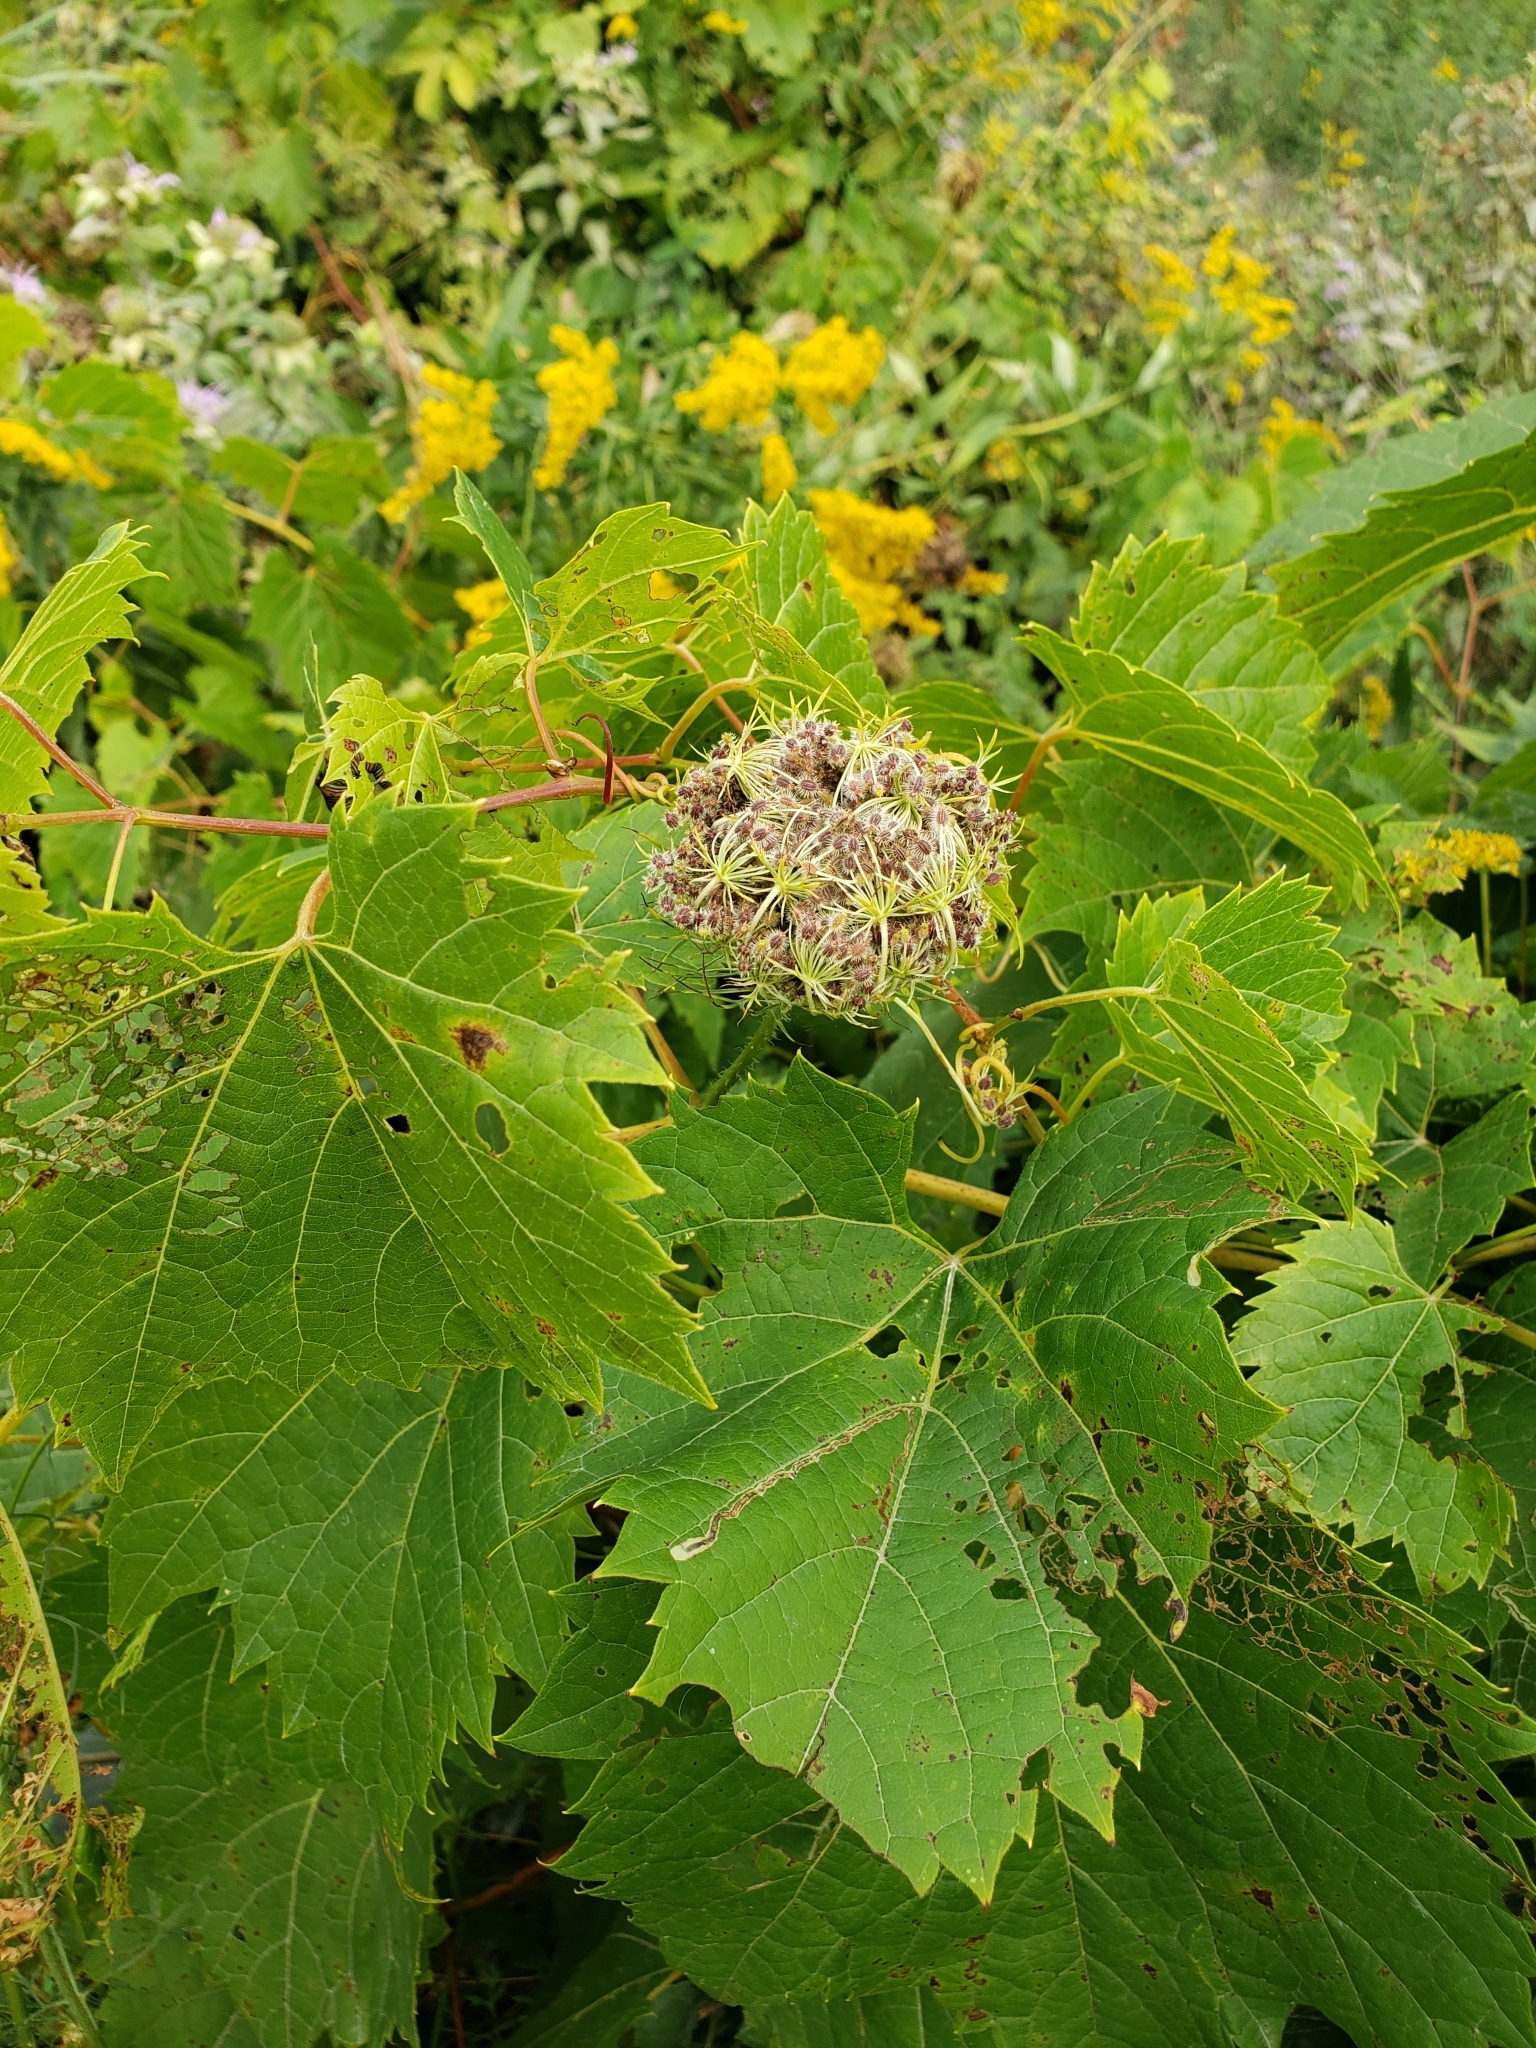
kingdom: Plantae
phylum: Tracheophyta
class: Magnoliopsida
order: Apiales
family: Apiaceae
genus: Daucus
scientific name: Daucus carota
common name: Wild carrot
